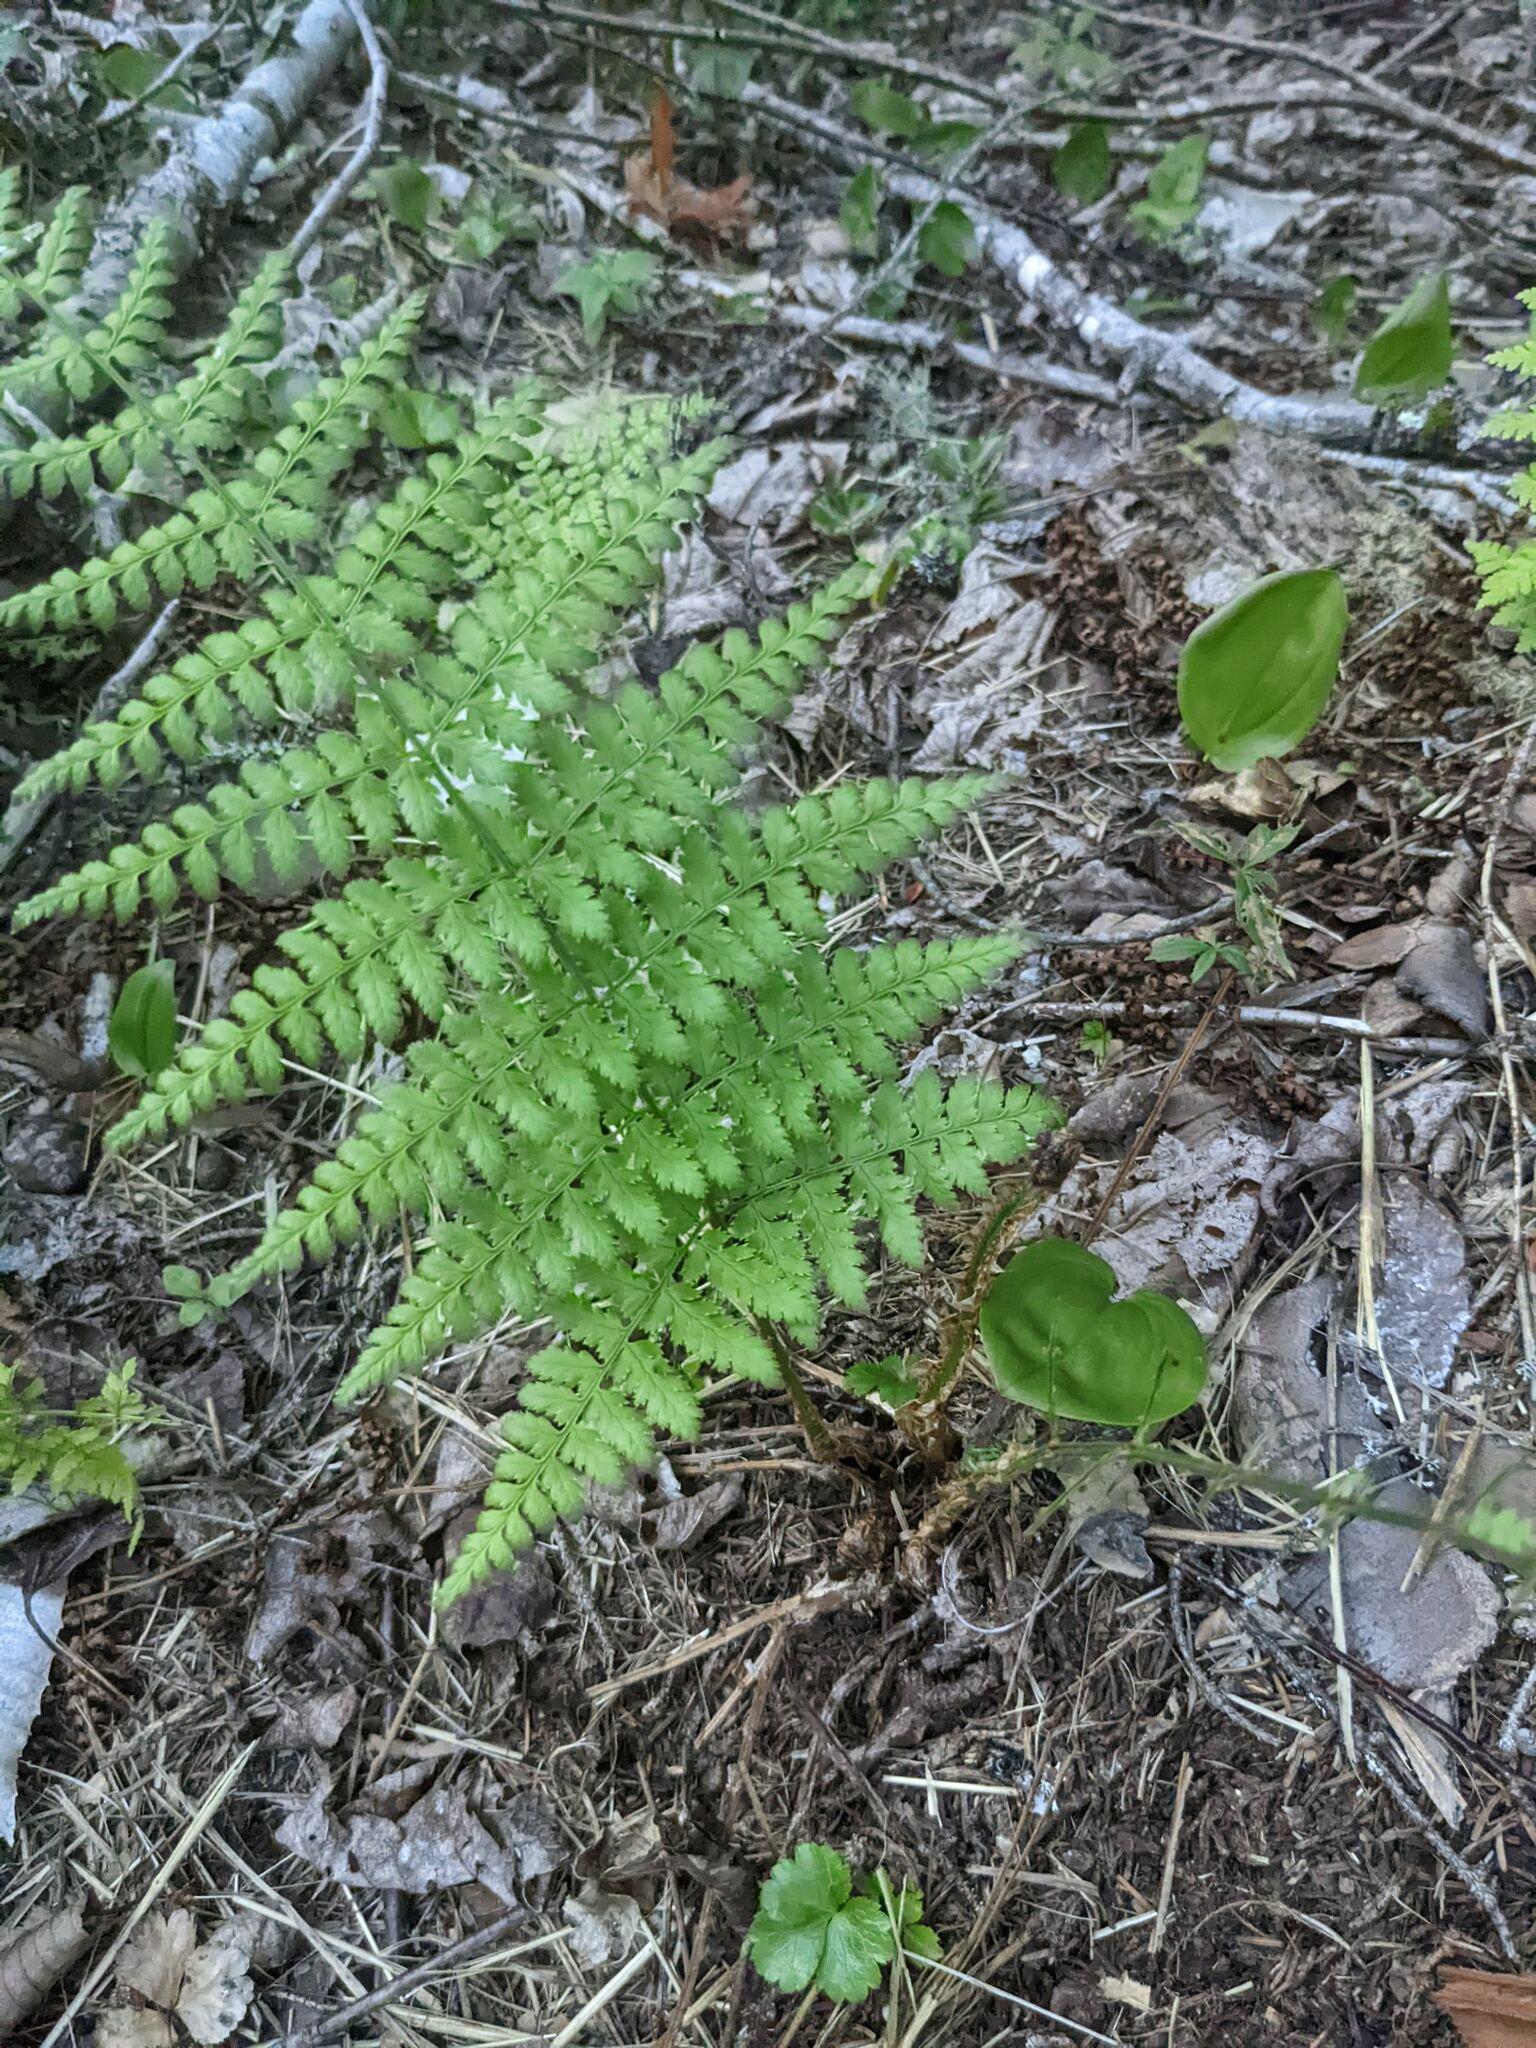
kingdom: Plantae
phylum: Tracheophyta
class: Liliopsida
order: Asparagales
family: Asparagaceae
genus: Maianthemum
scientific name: Maianthemum canadense
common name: False lily-of-the-valley
